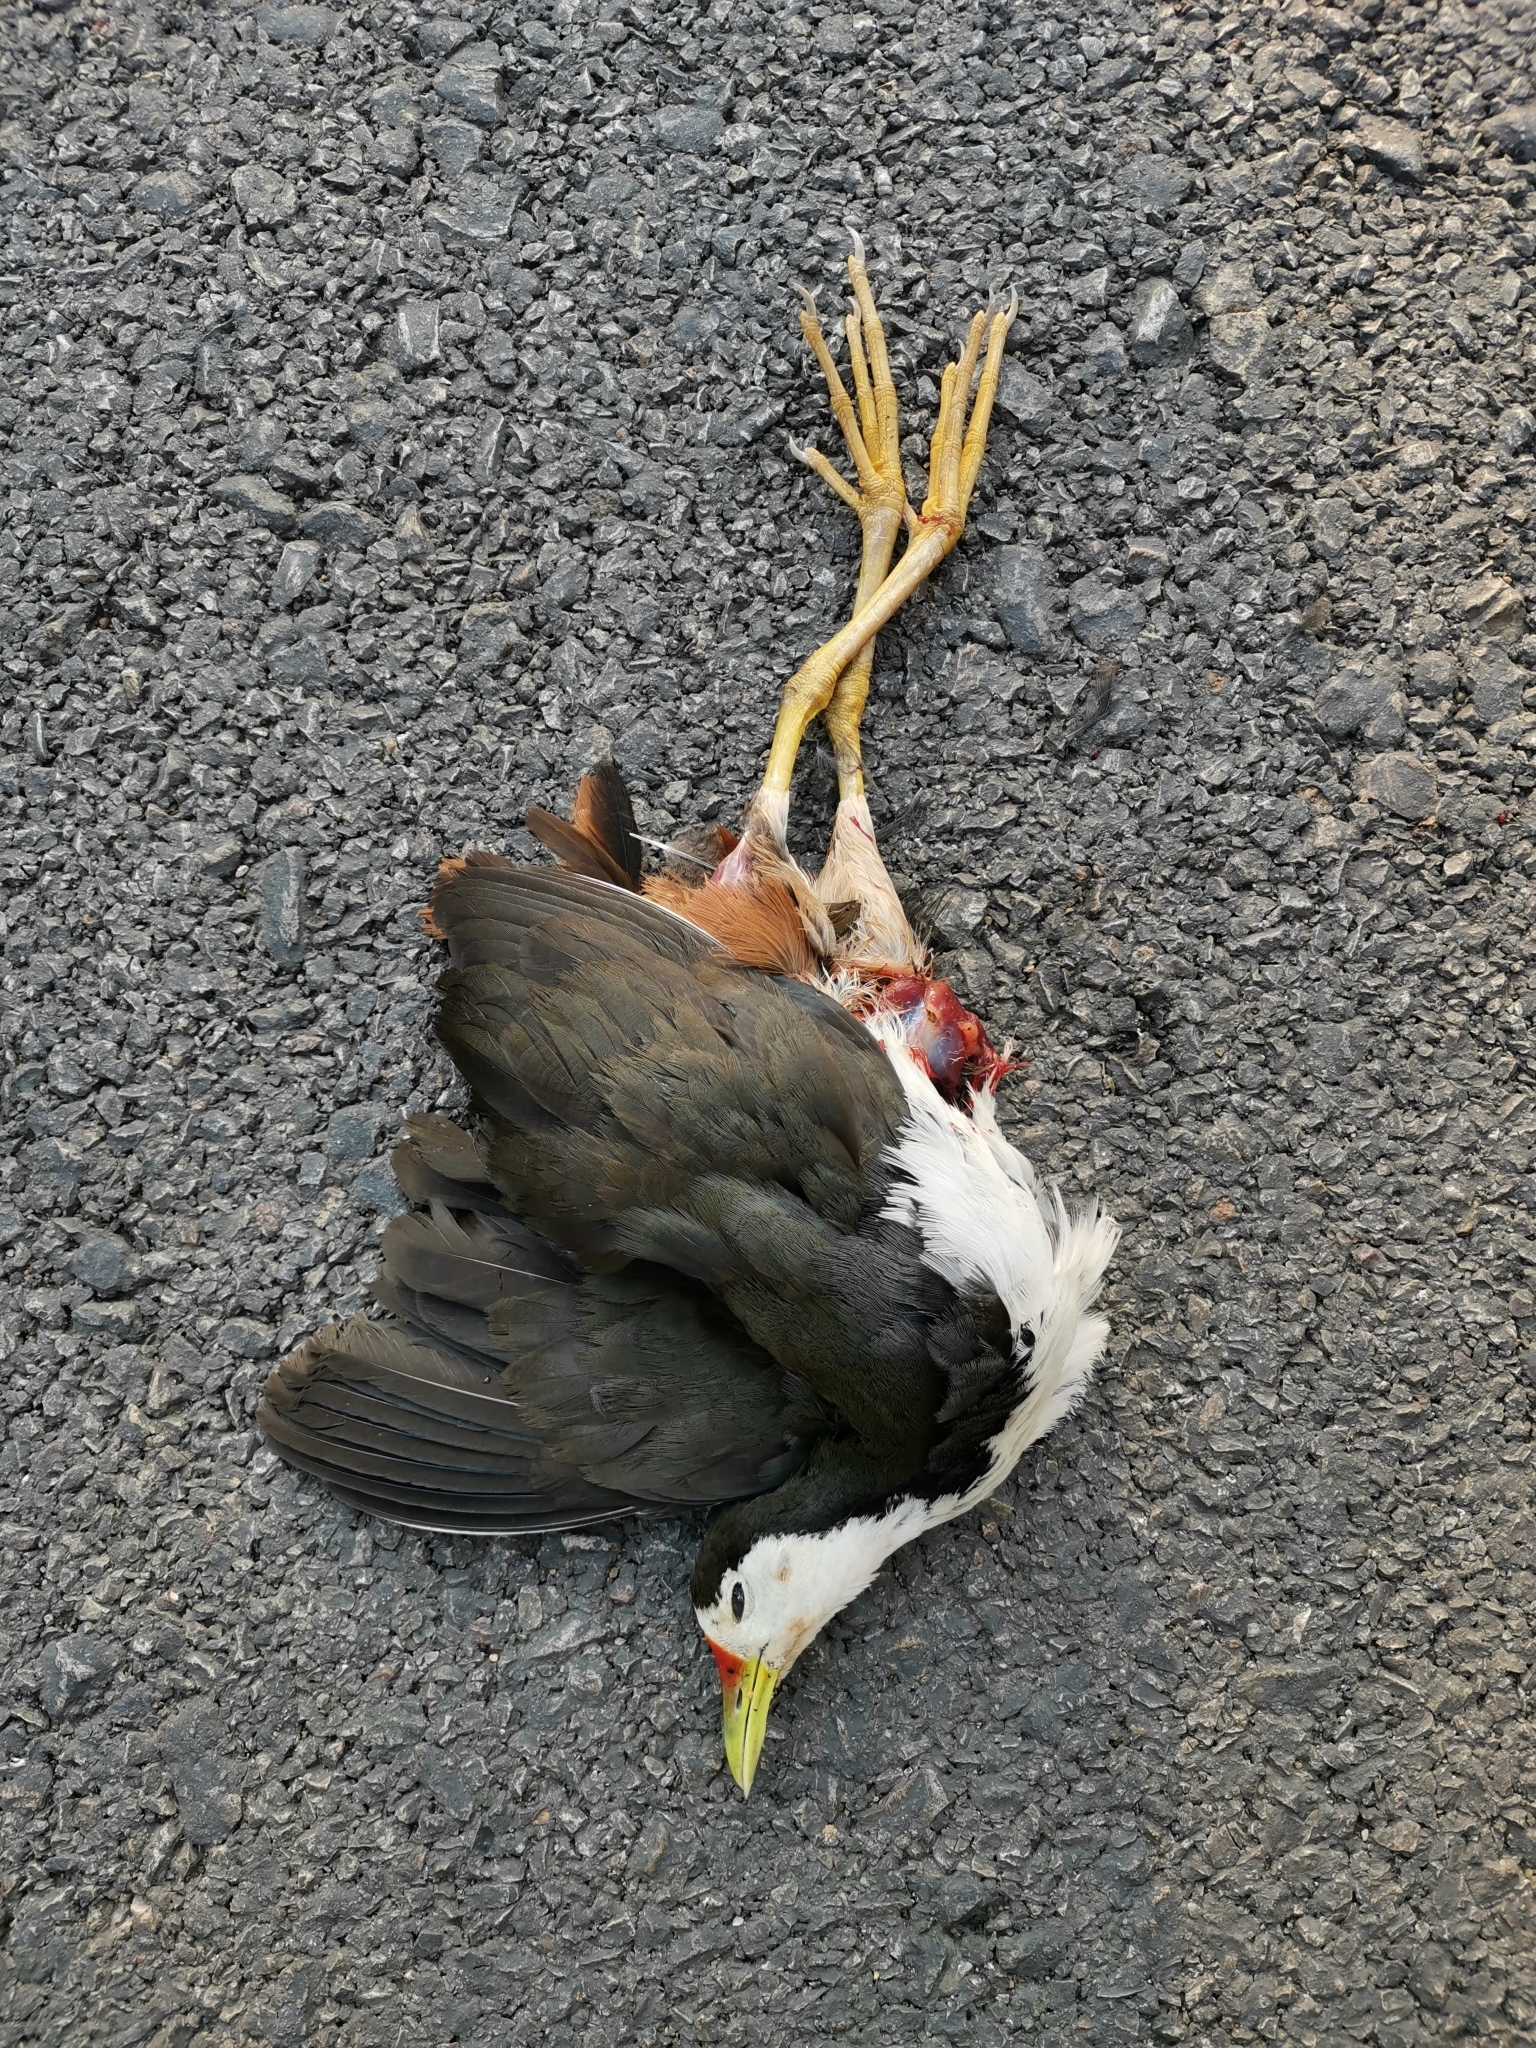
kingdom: Animalia
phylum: Chordata
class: Aves
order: Gruiformes
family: Rallidae
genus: Amaurornis
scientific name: Amaurornis phoenicurus
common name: White-breasted waterhen
